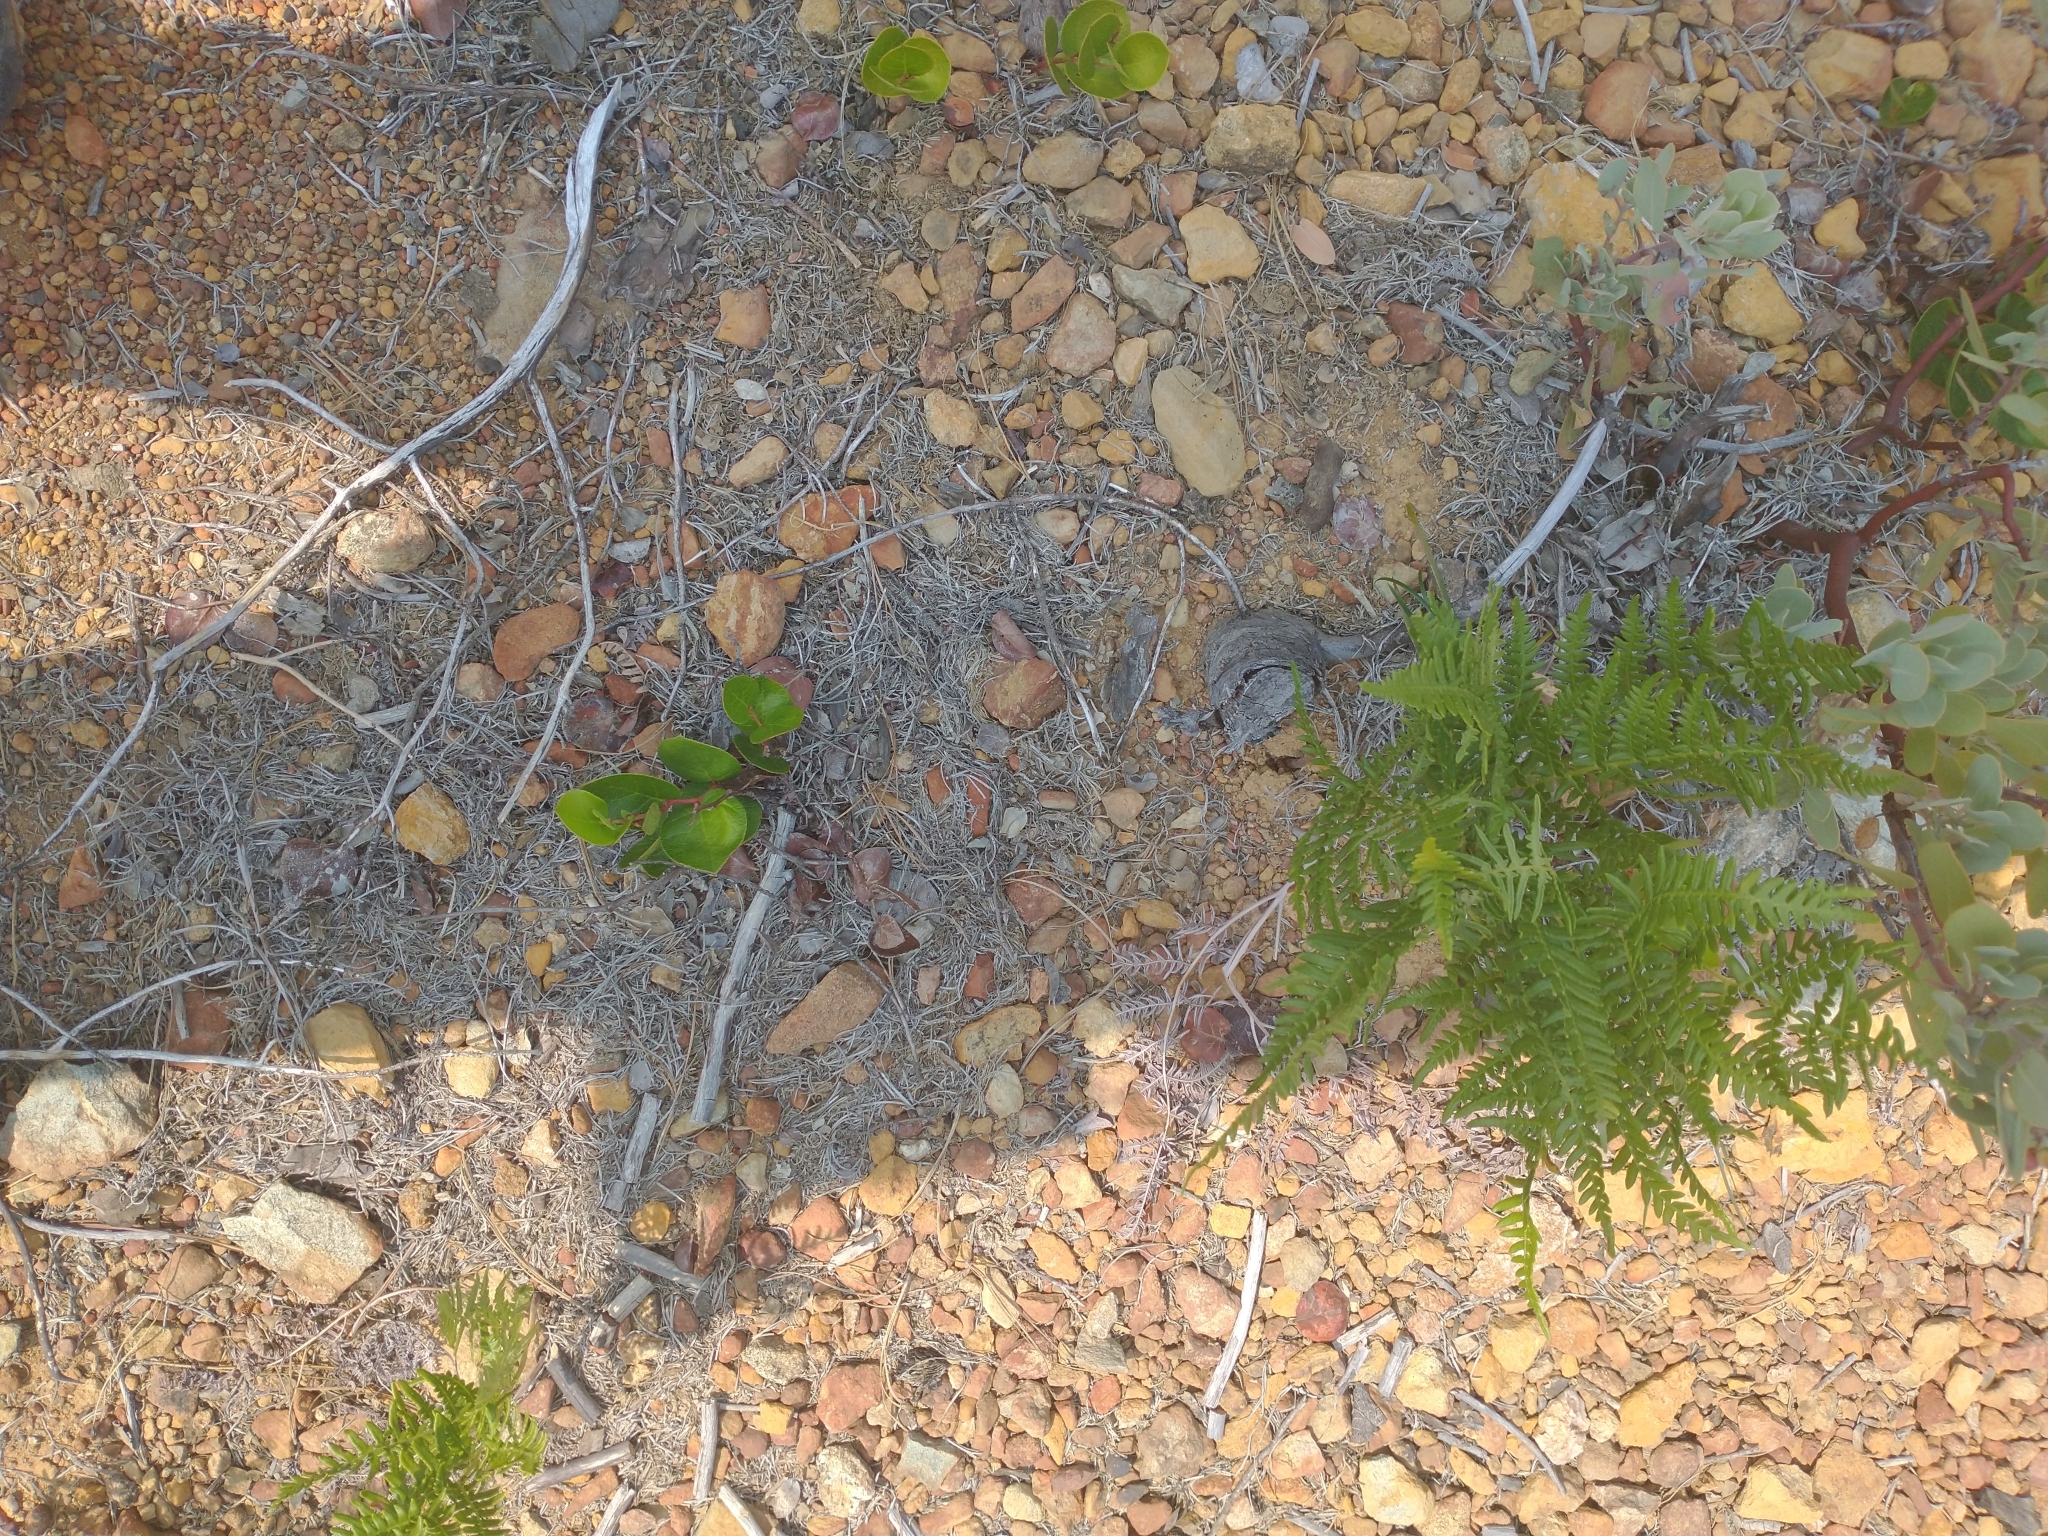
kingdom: Plantae
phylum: Tracheophyta
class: Polypodiopsida
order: Polypodiales
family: Dennstaedtiaceae
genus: Pteridium
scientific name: Pteridium aquilinum
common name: Bracken
